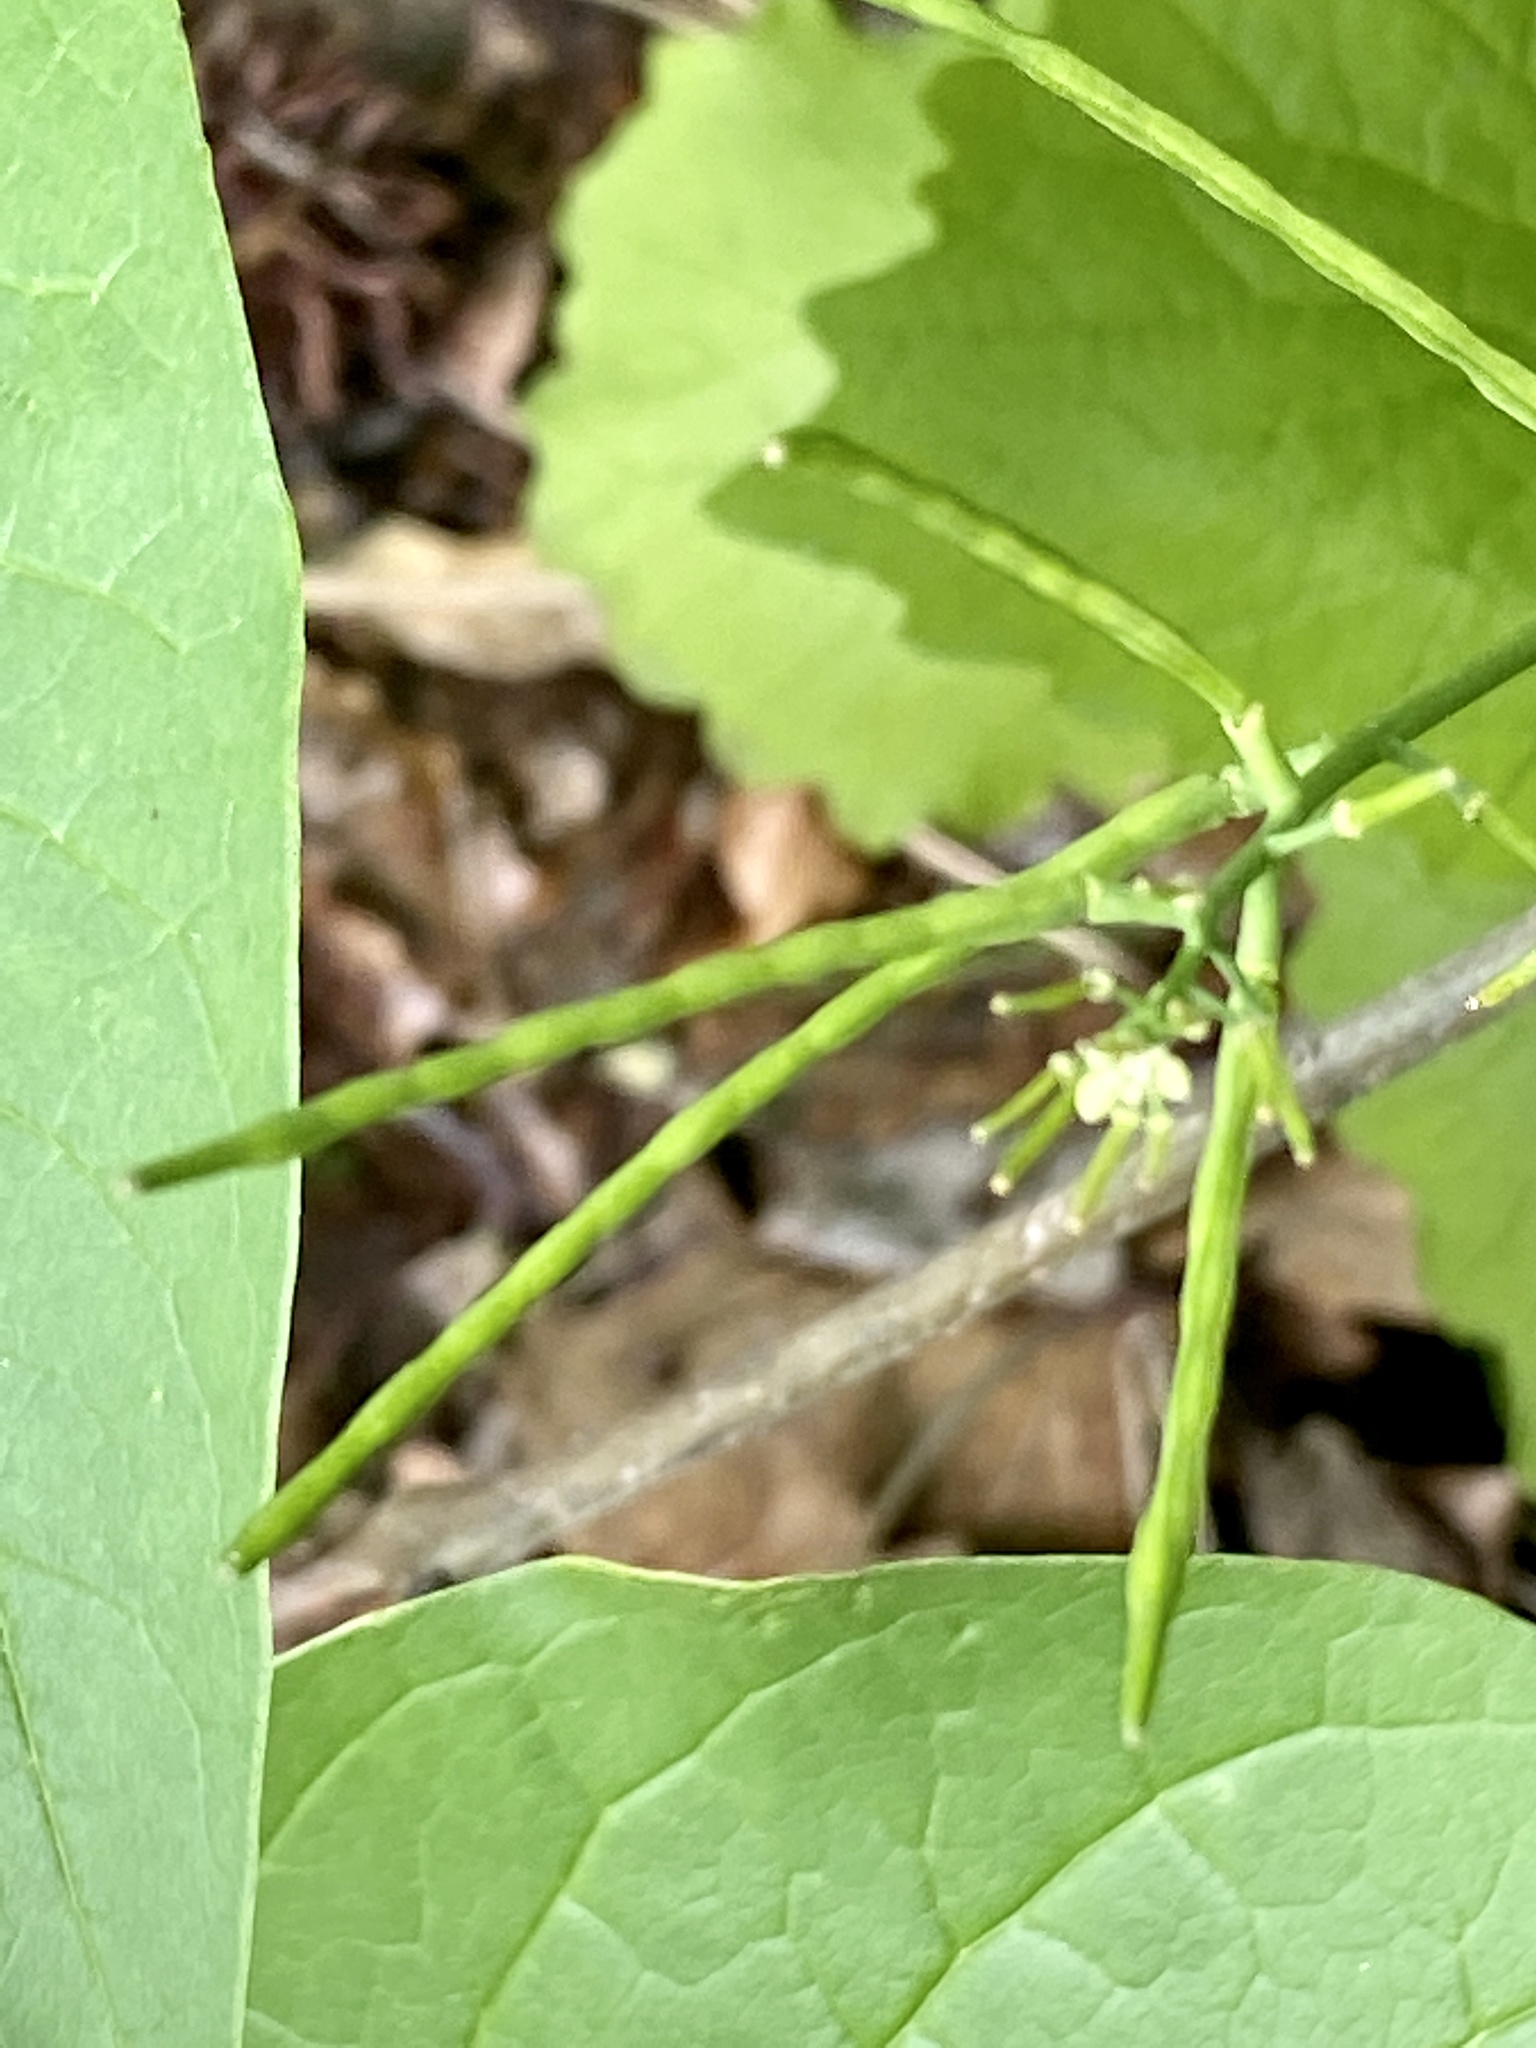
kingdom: Plantae
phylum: Tracheophyta
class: Magnoliopsida
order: Brassicales
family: Brassicaceae
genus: Alliaria
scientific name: Alliaria petiolata
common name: Garlic mustard
